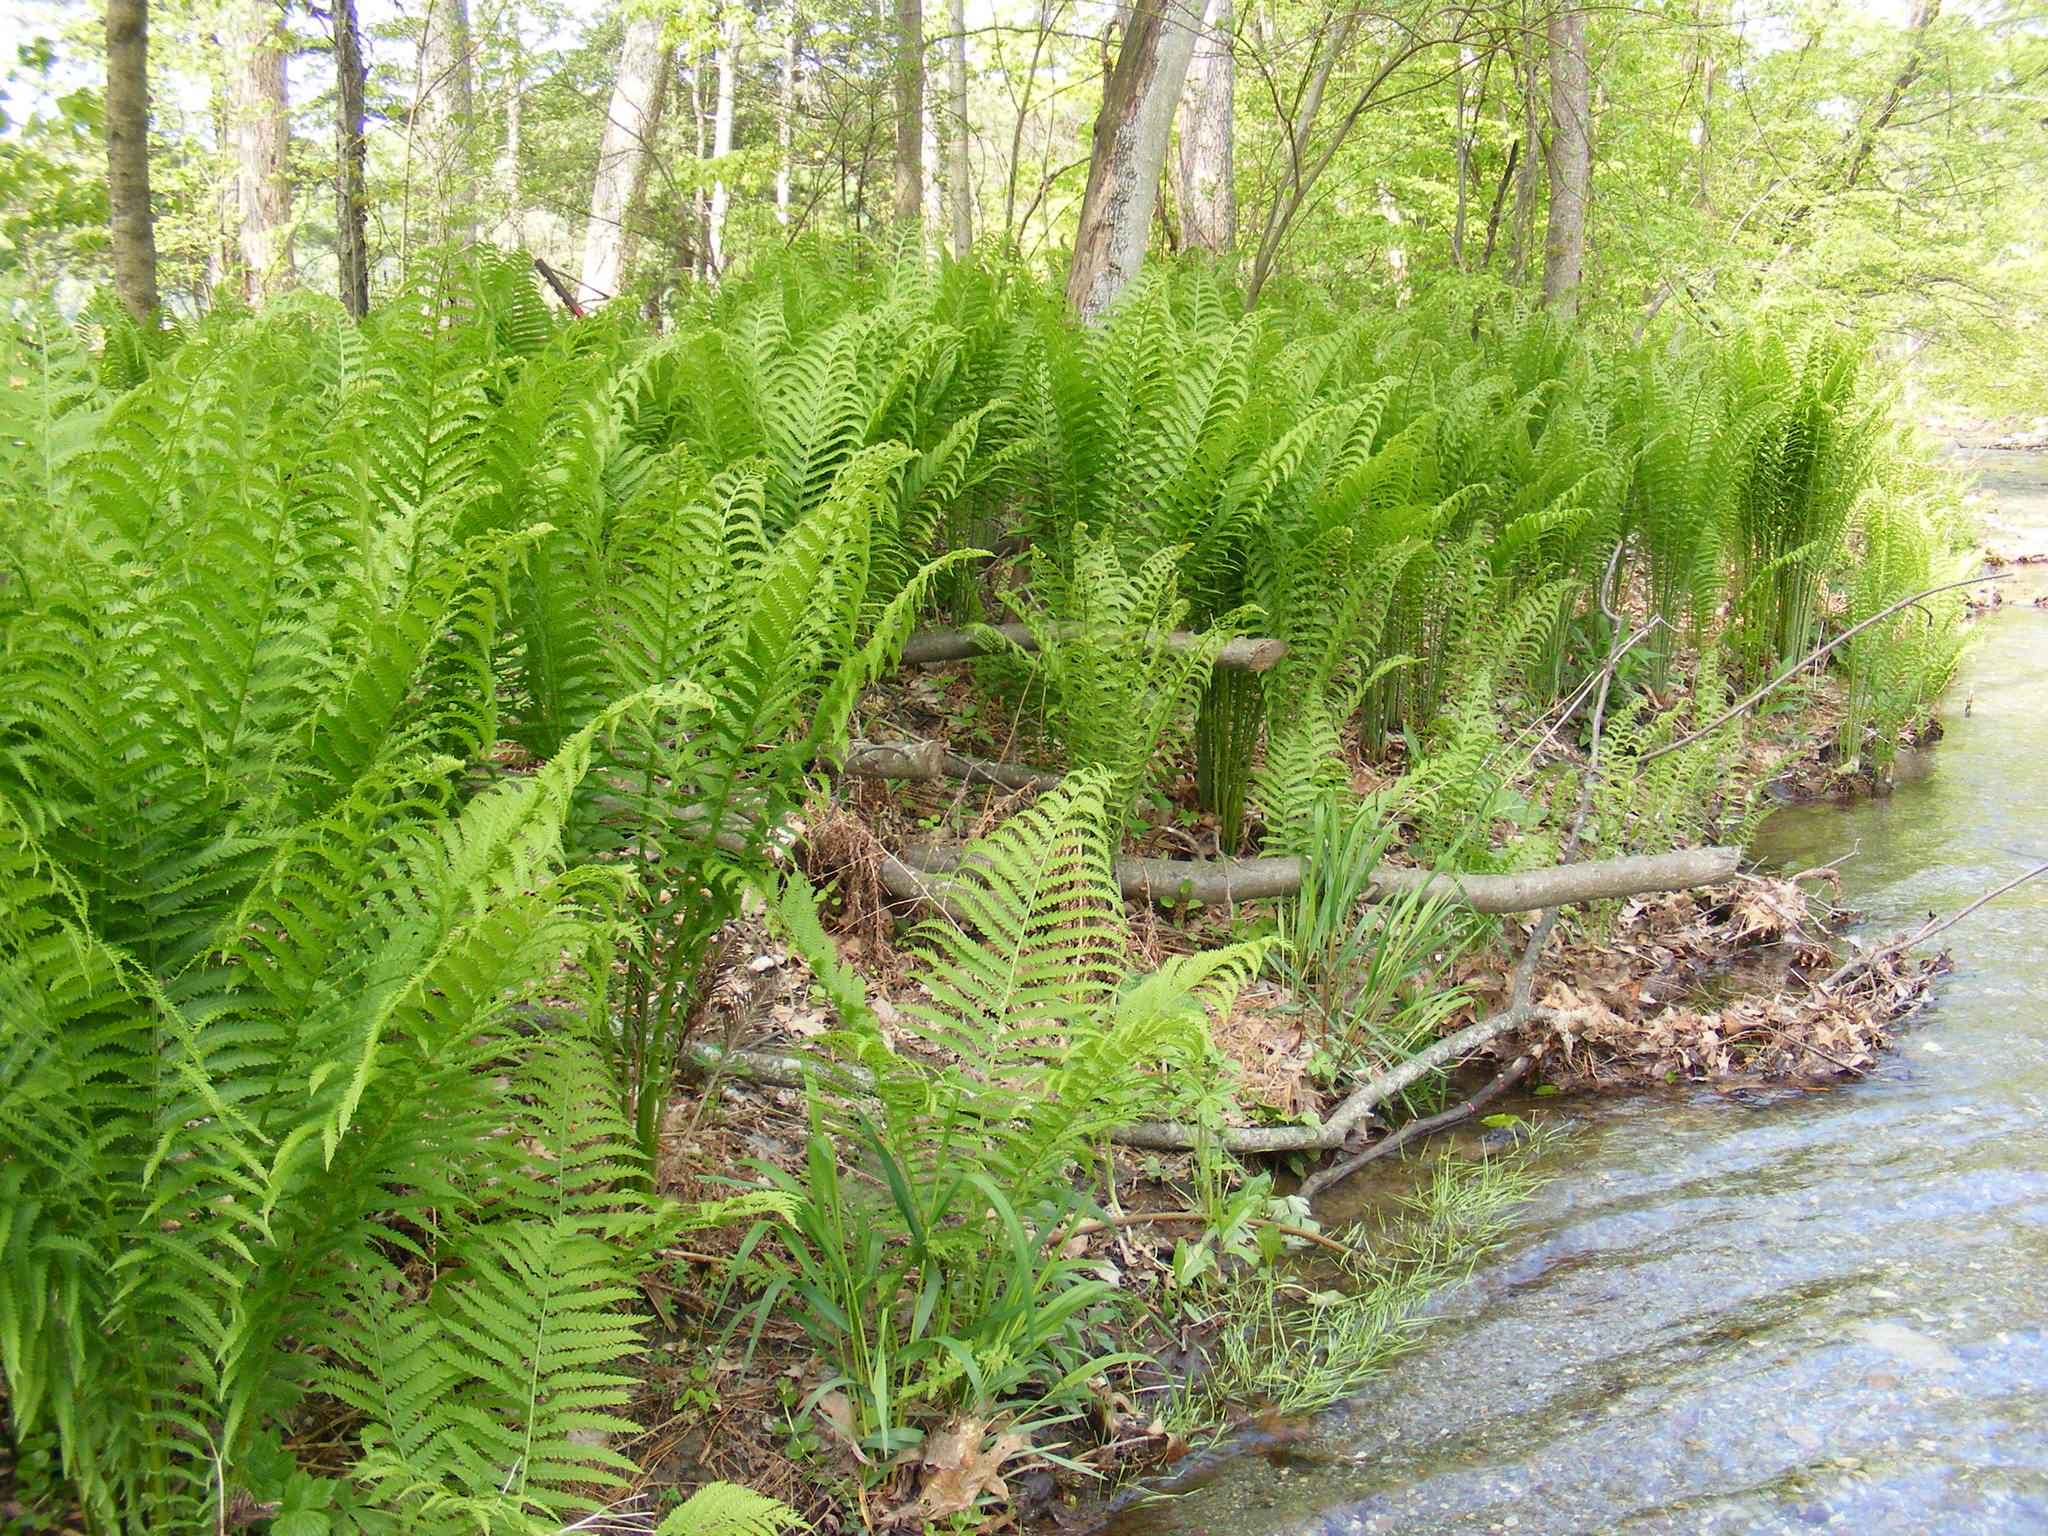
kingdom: Plantae
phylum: Tracheophyta
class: Polypodiopsida
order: Polypodiales
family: Onocleaceae
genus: Matteuccia
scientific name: Matteuccia struthiopteris
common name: Ostrich fern
